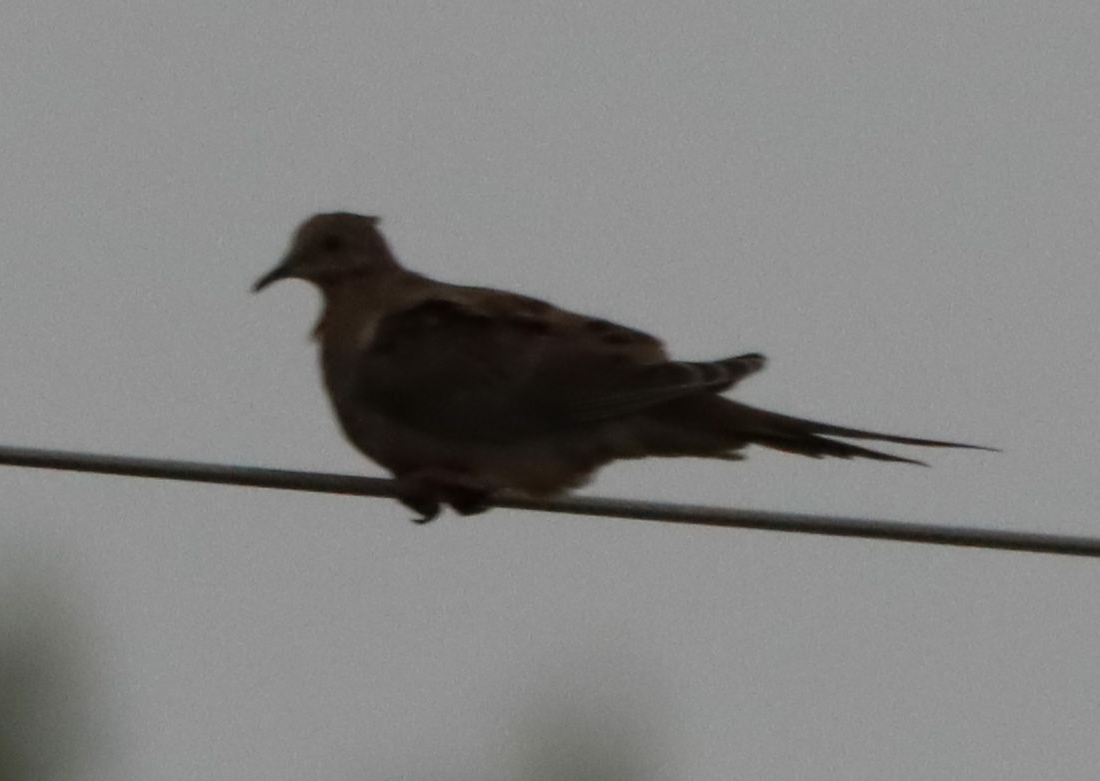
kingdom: Animalia
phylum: Chordata
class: Aves
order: Columbiformes
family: Columbidae
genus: Zenaida
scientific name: Zenaida macroura
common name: Mourning dove
